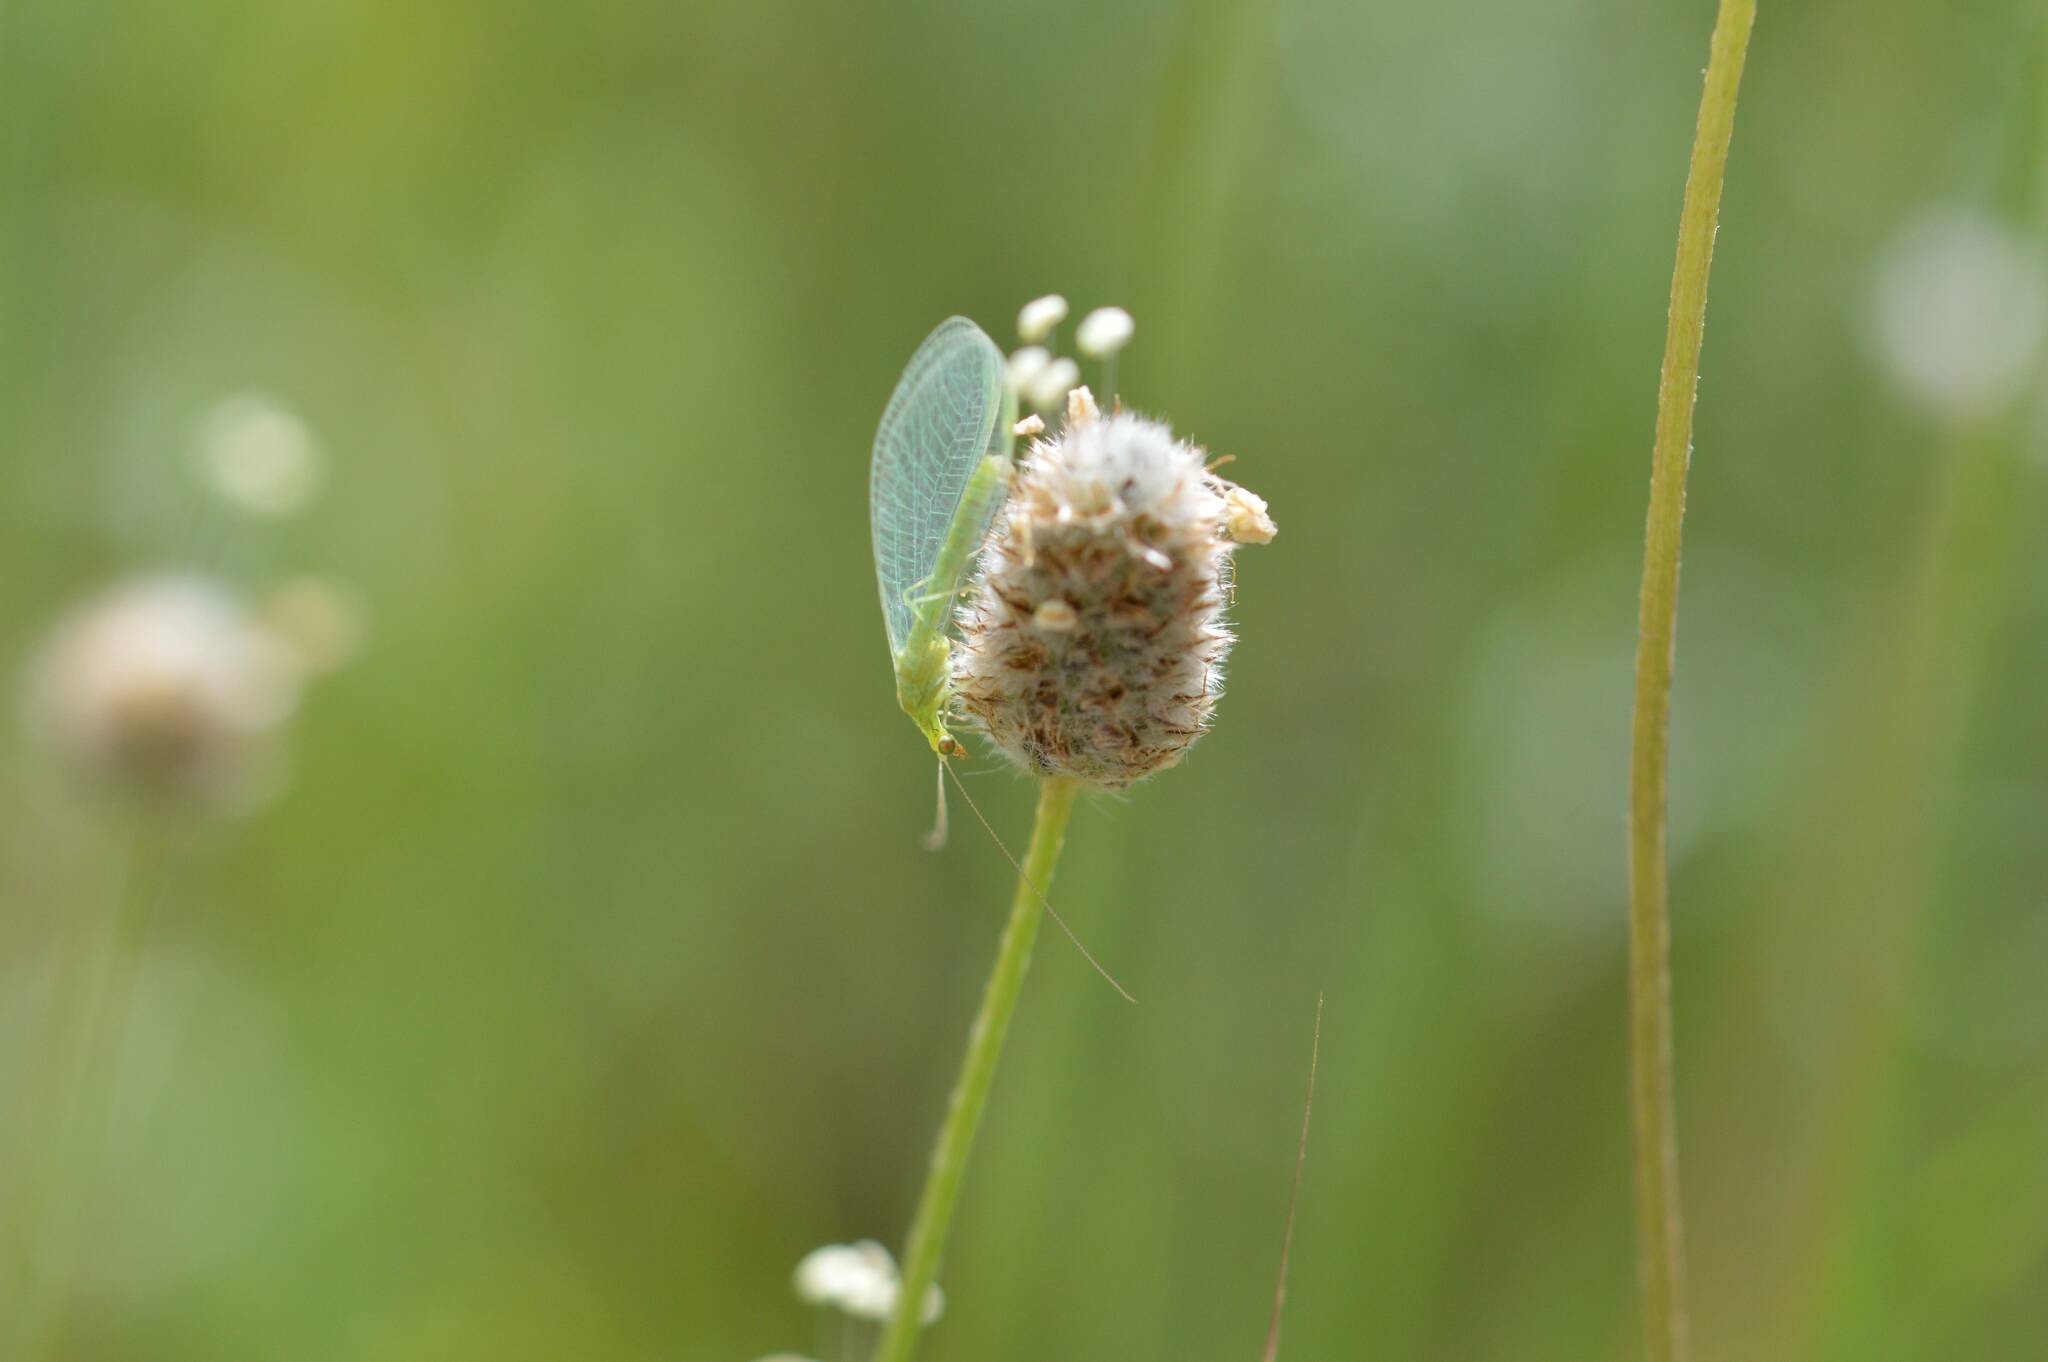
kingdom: Plantae
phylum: Tracheophyta
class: Magnoliopsida
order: Lamiales
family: Plantaginaceae
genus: Plantago
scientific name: Plantago lagopus
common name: Hare-foot plantain
